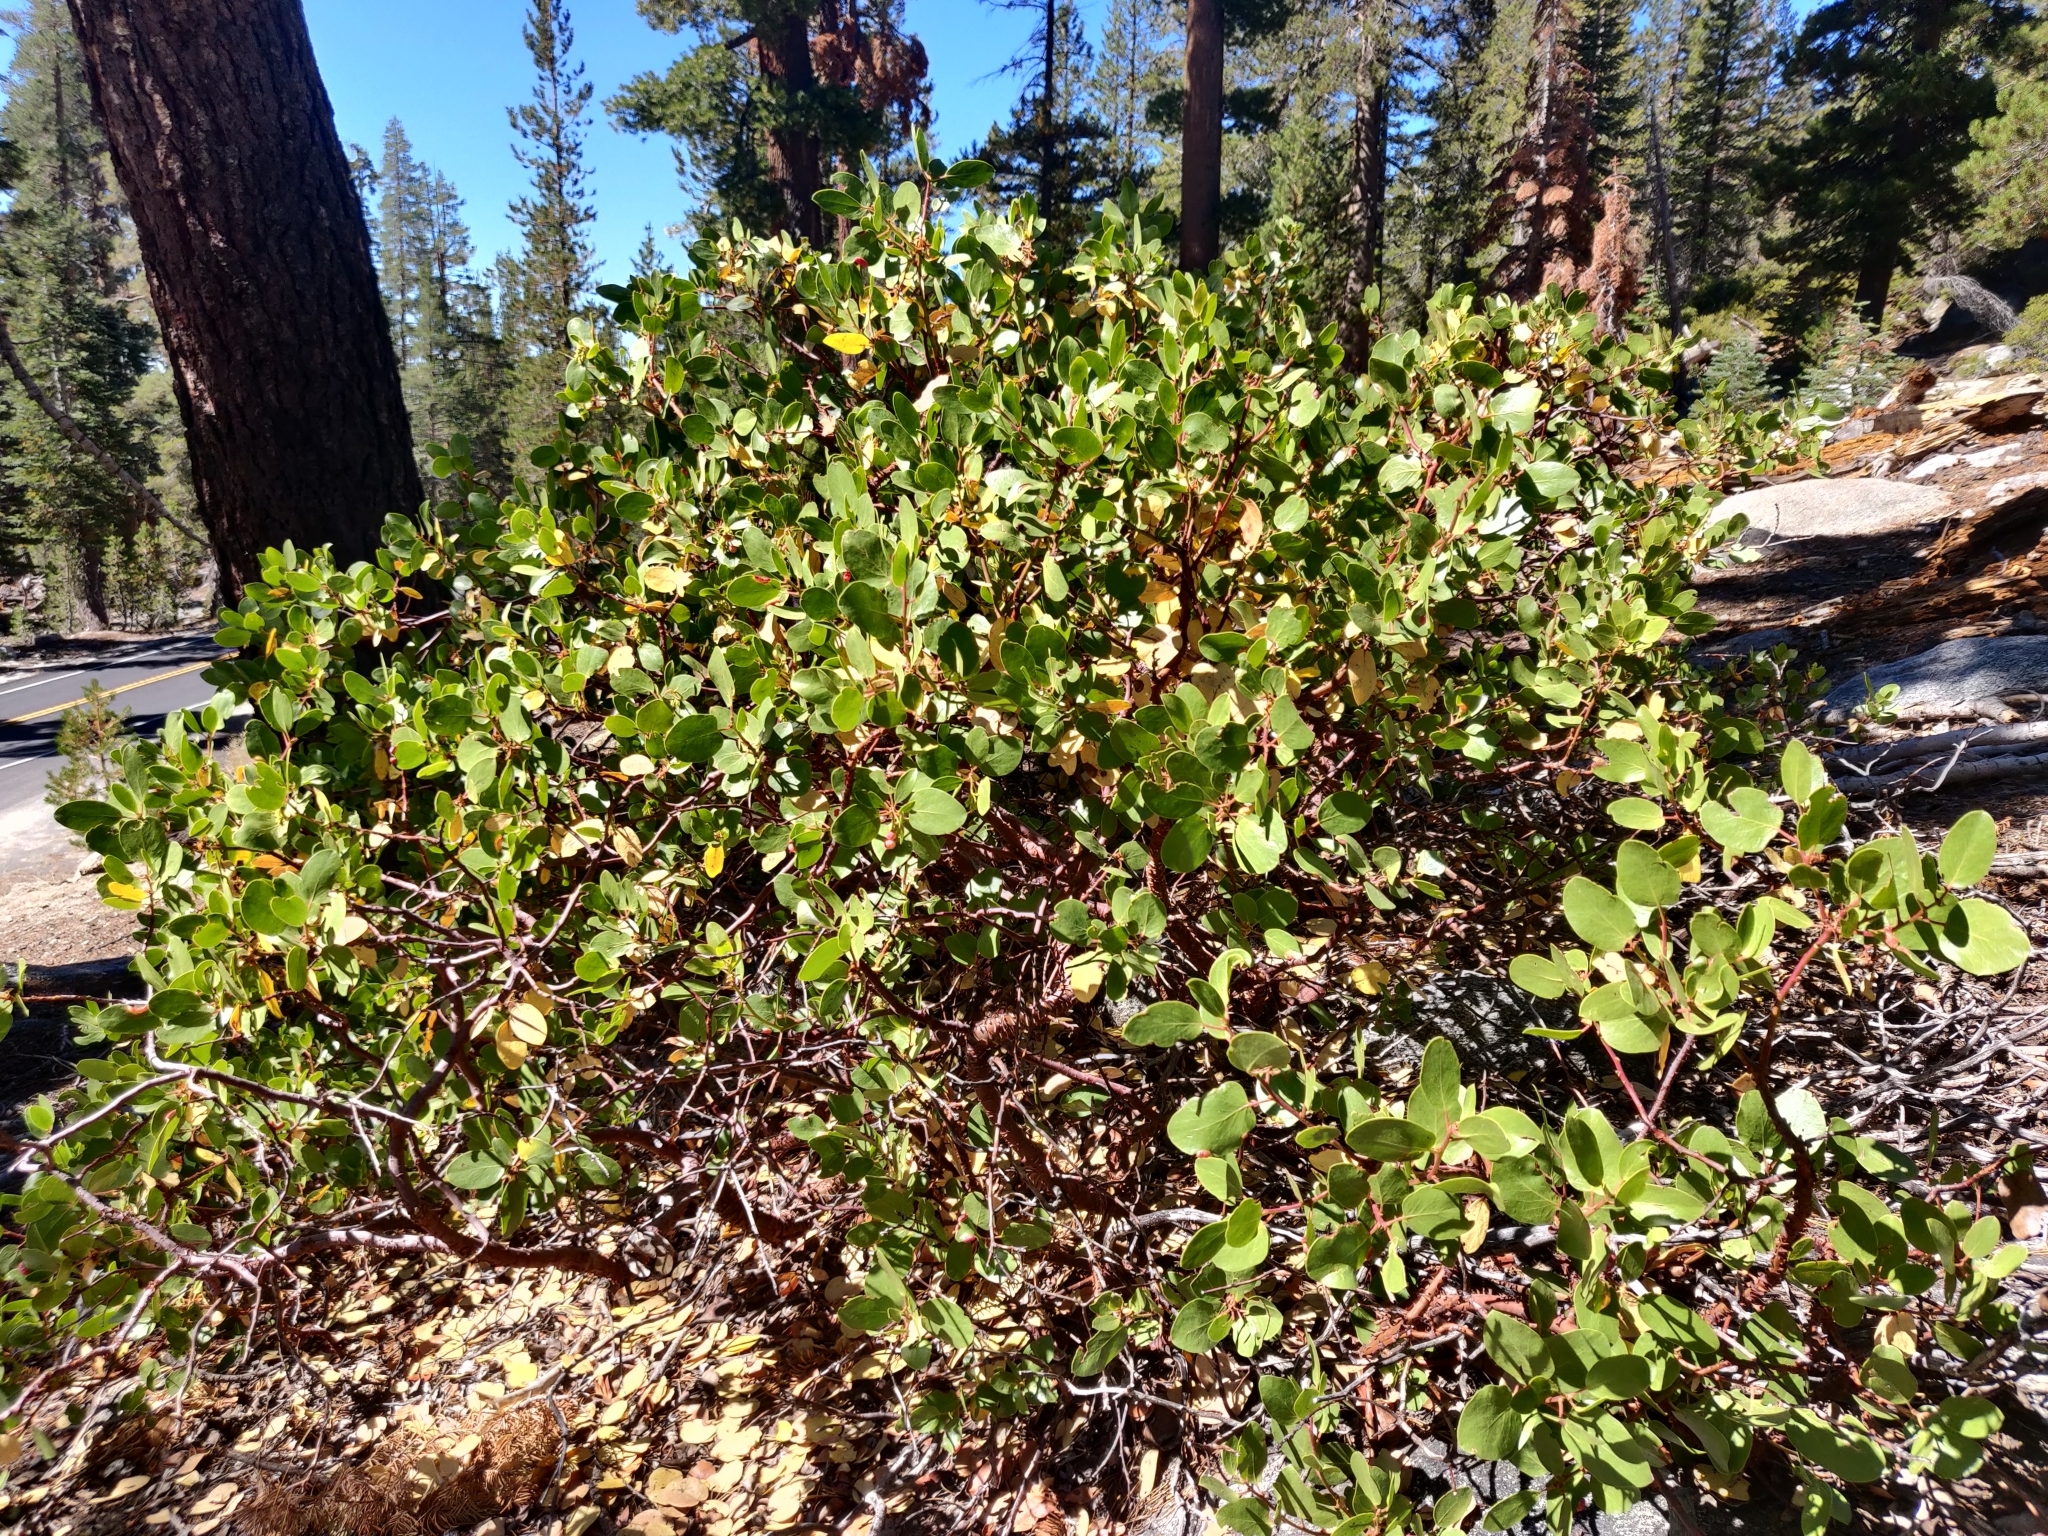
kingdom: Plantae
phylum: Tracheophyta
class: Magnoliopsida
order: Ericales
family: Ericaceae
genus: Arctostaphylos
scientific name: Arctostaphylos patula
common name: Green-leaf manzanita
